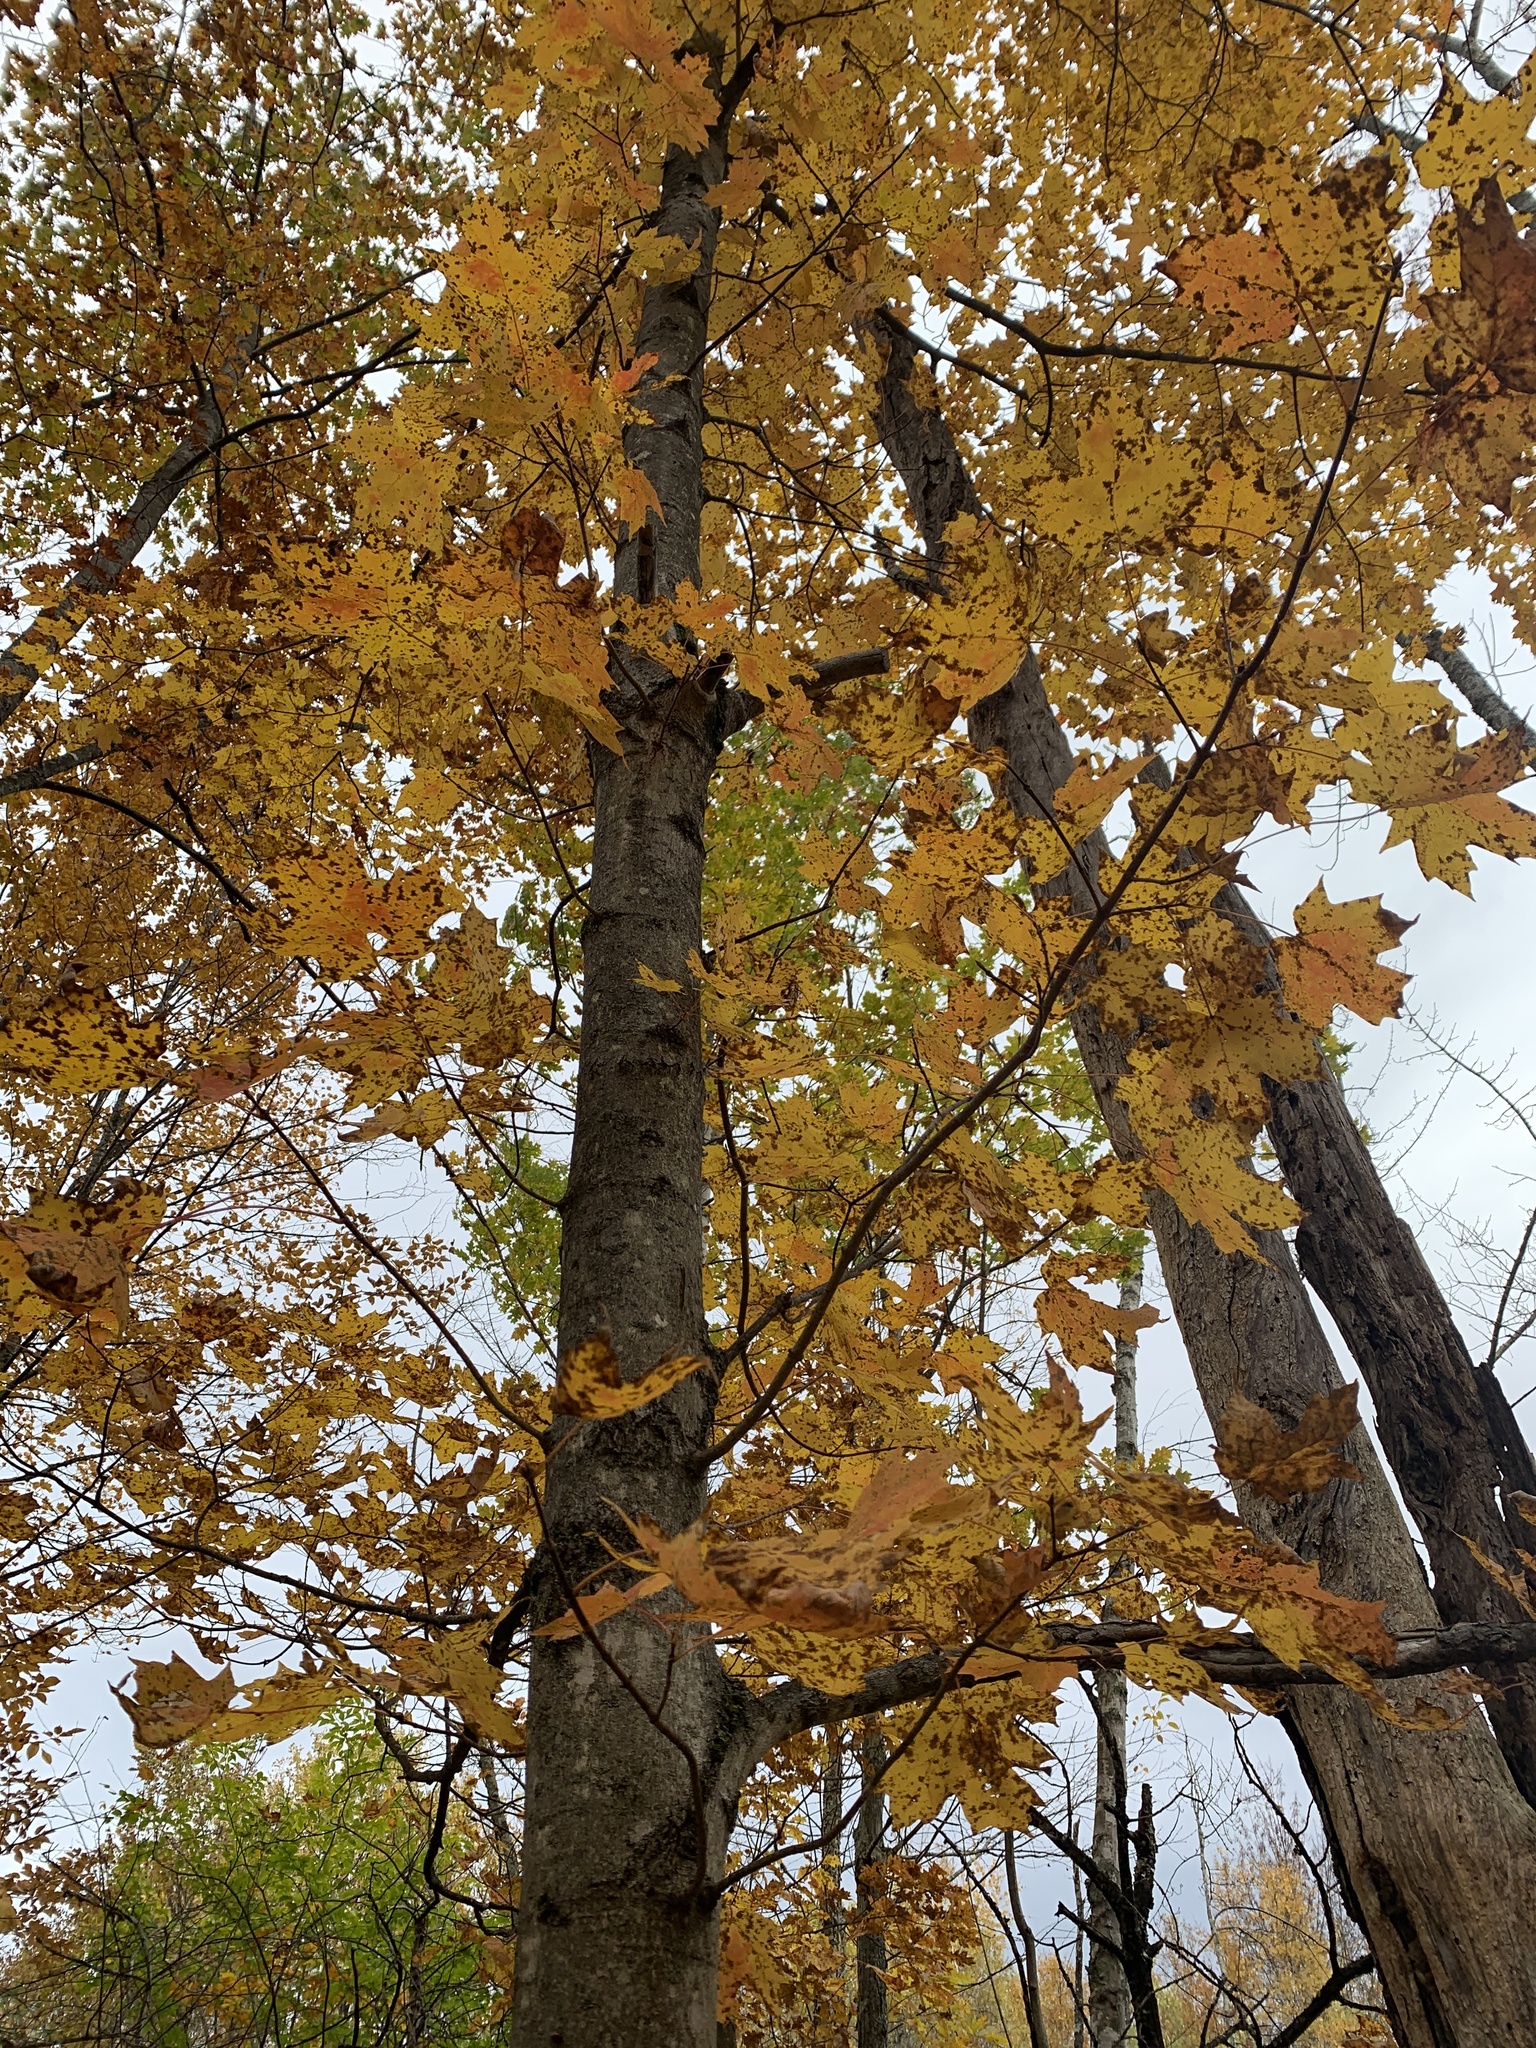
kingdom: Plantae
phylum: Tracheophyta
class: Magnoliopsida
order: Sapindales
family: Sapindaceae
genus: Acer
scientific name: Acer saccharum
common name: Sugar maple
